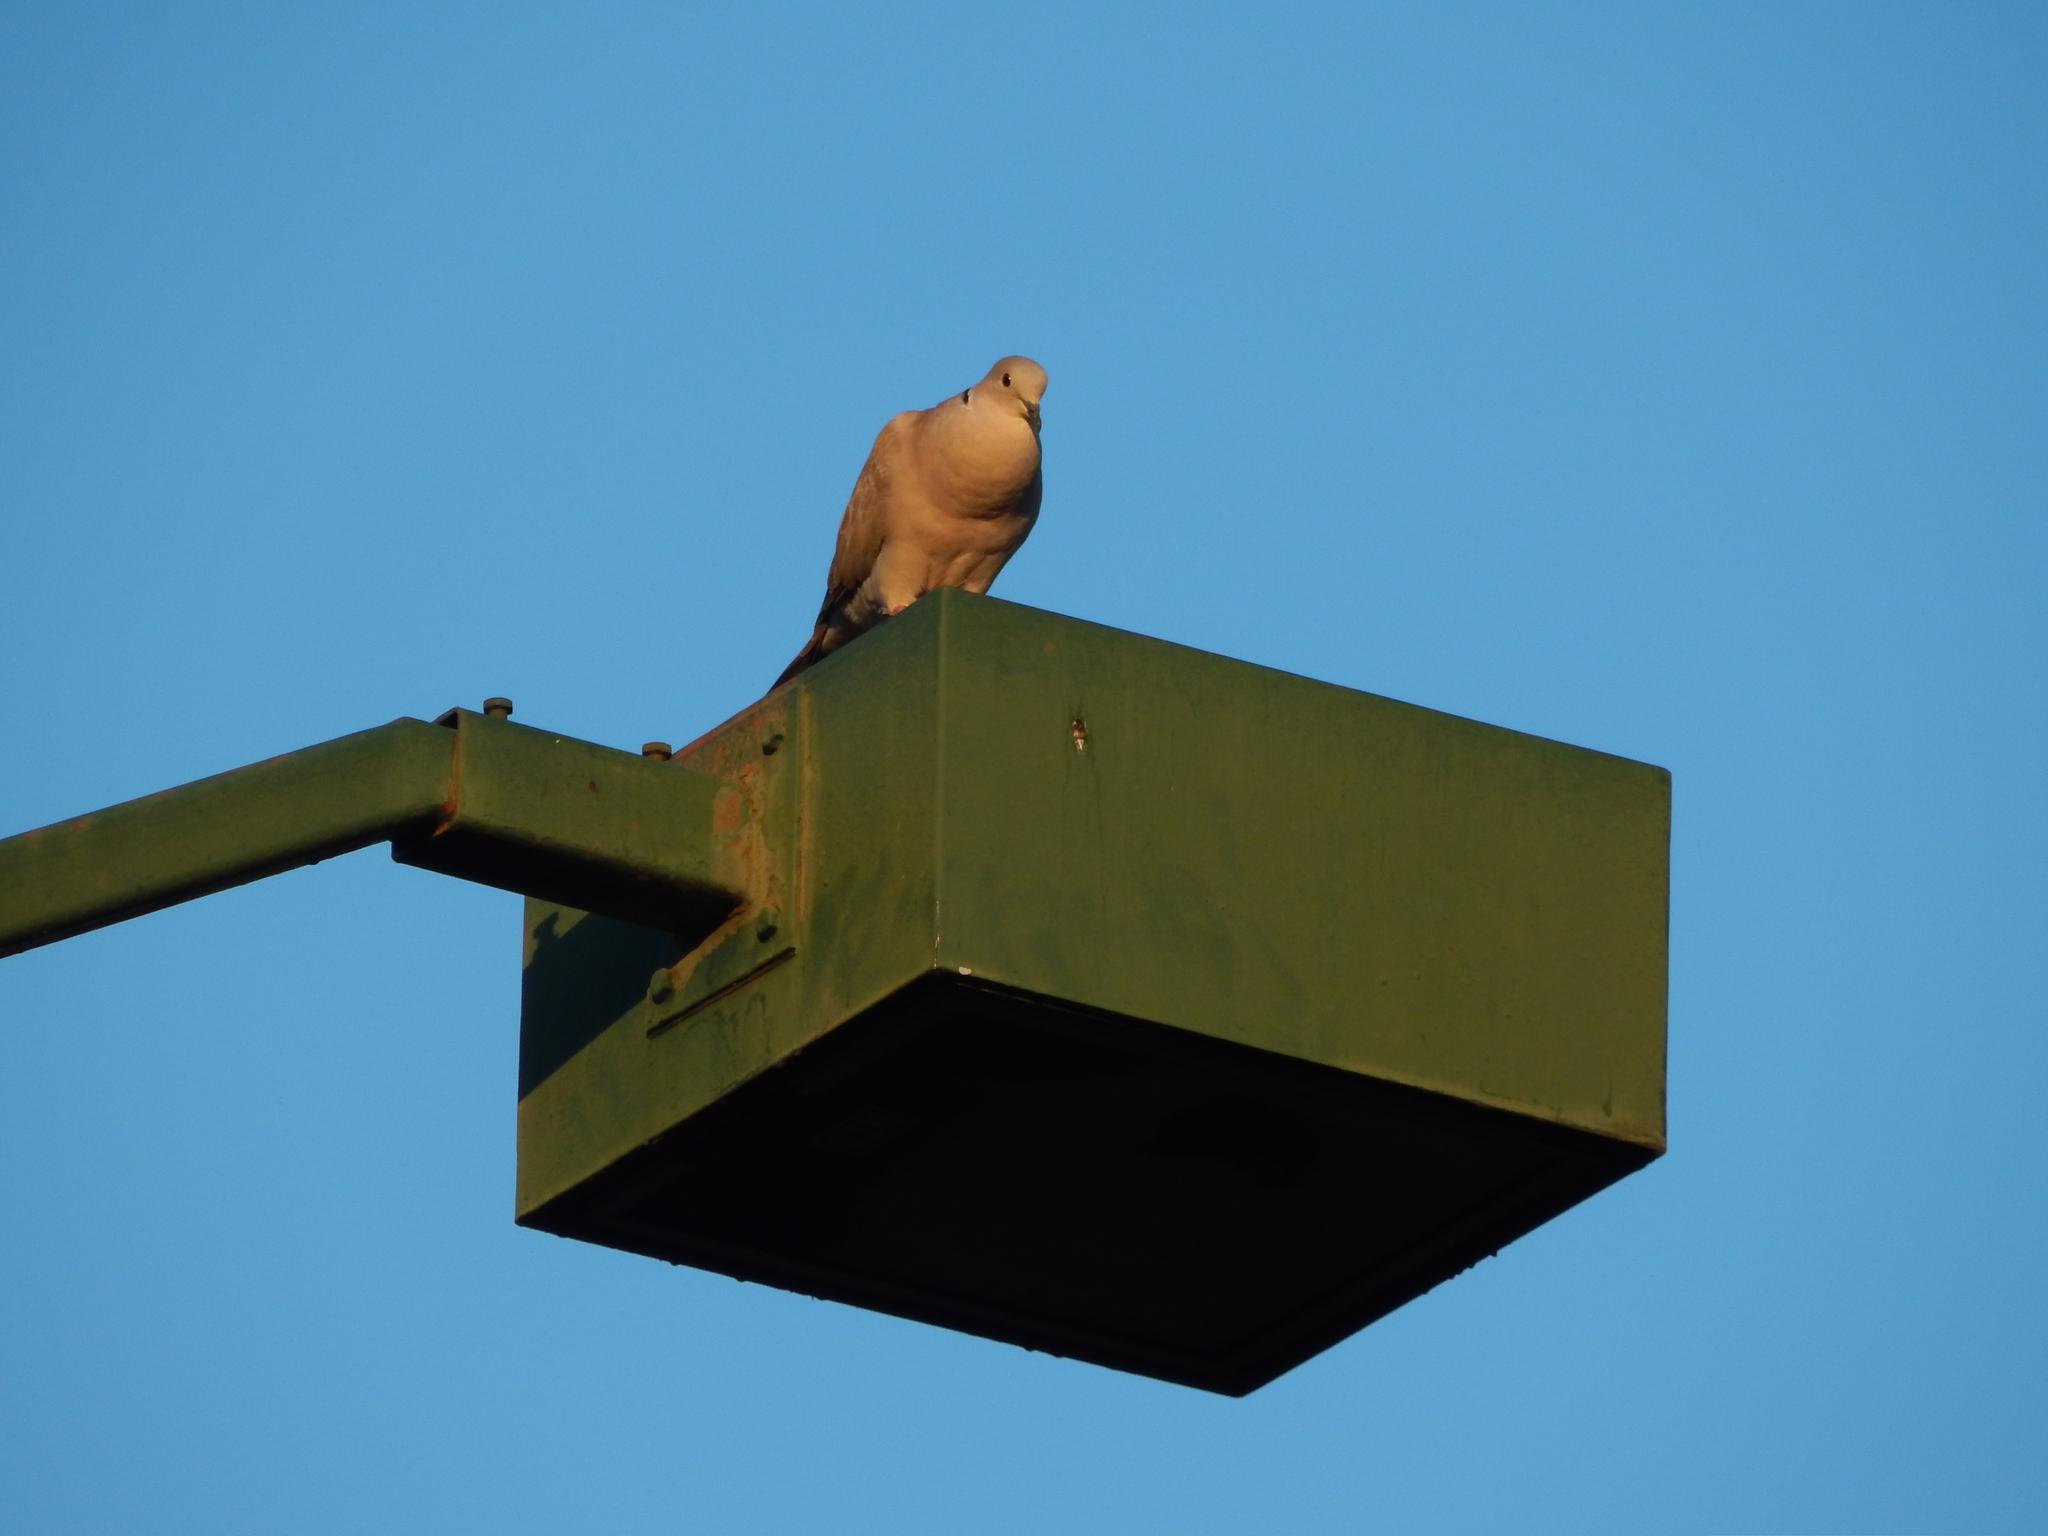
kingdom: Animalia
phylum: Chordata
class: Aves
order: Columbiformes
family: Columbidae
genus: Streptopelia
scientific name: Streptopelia decaocto
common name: Eurasian collared dove
